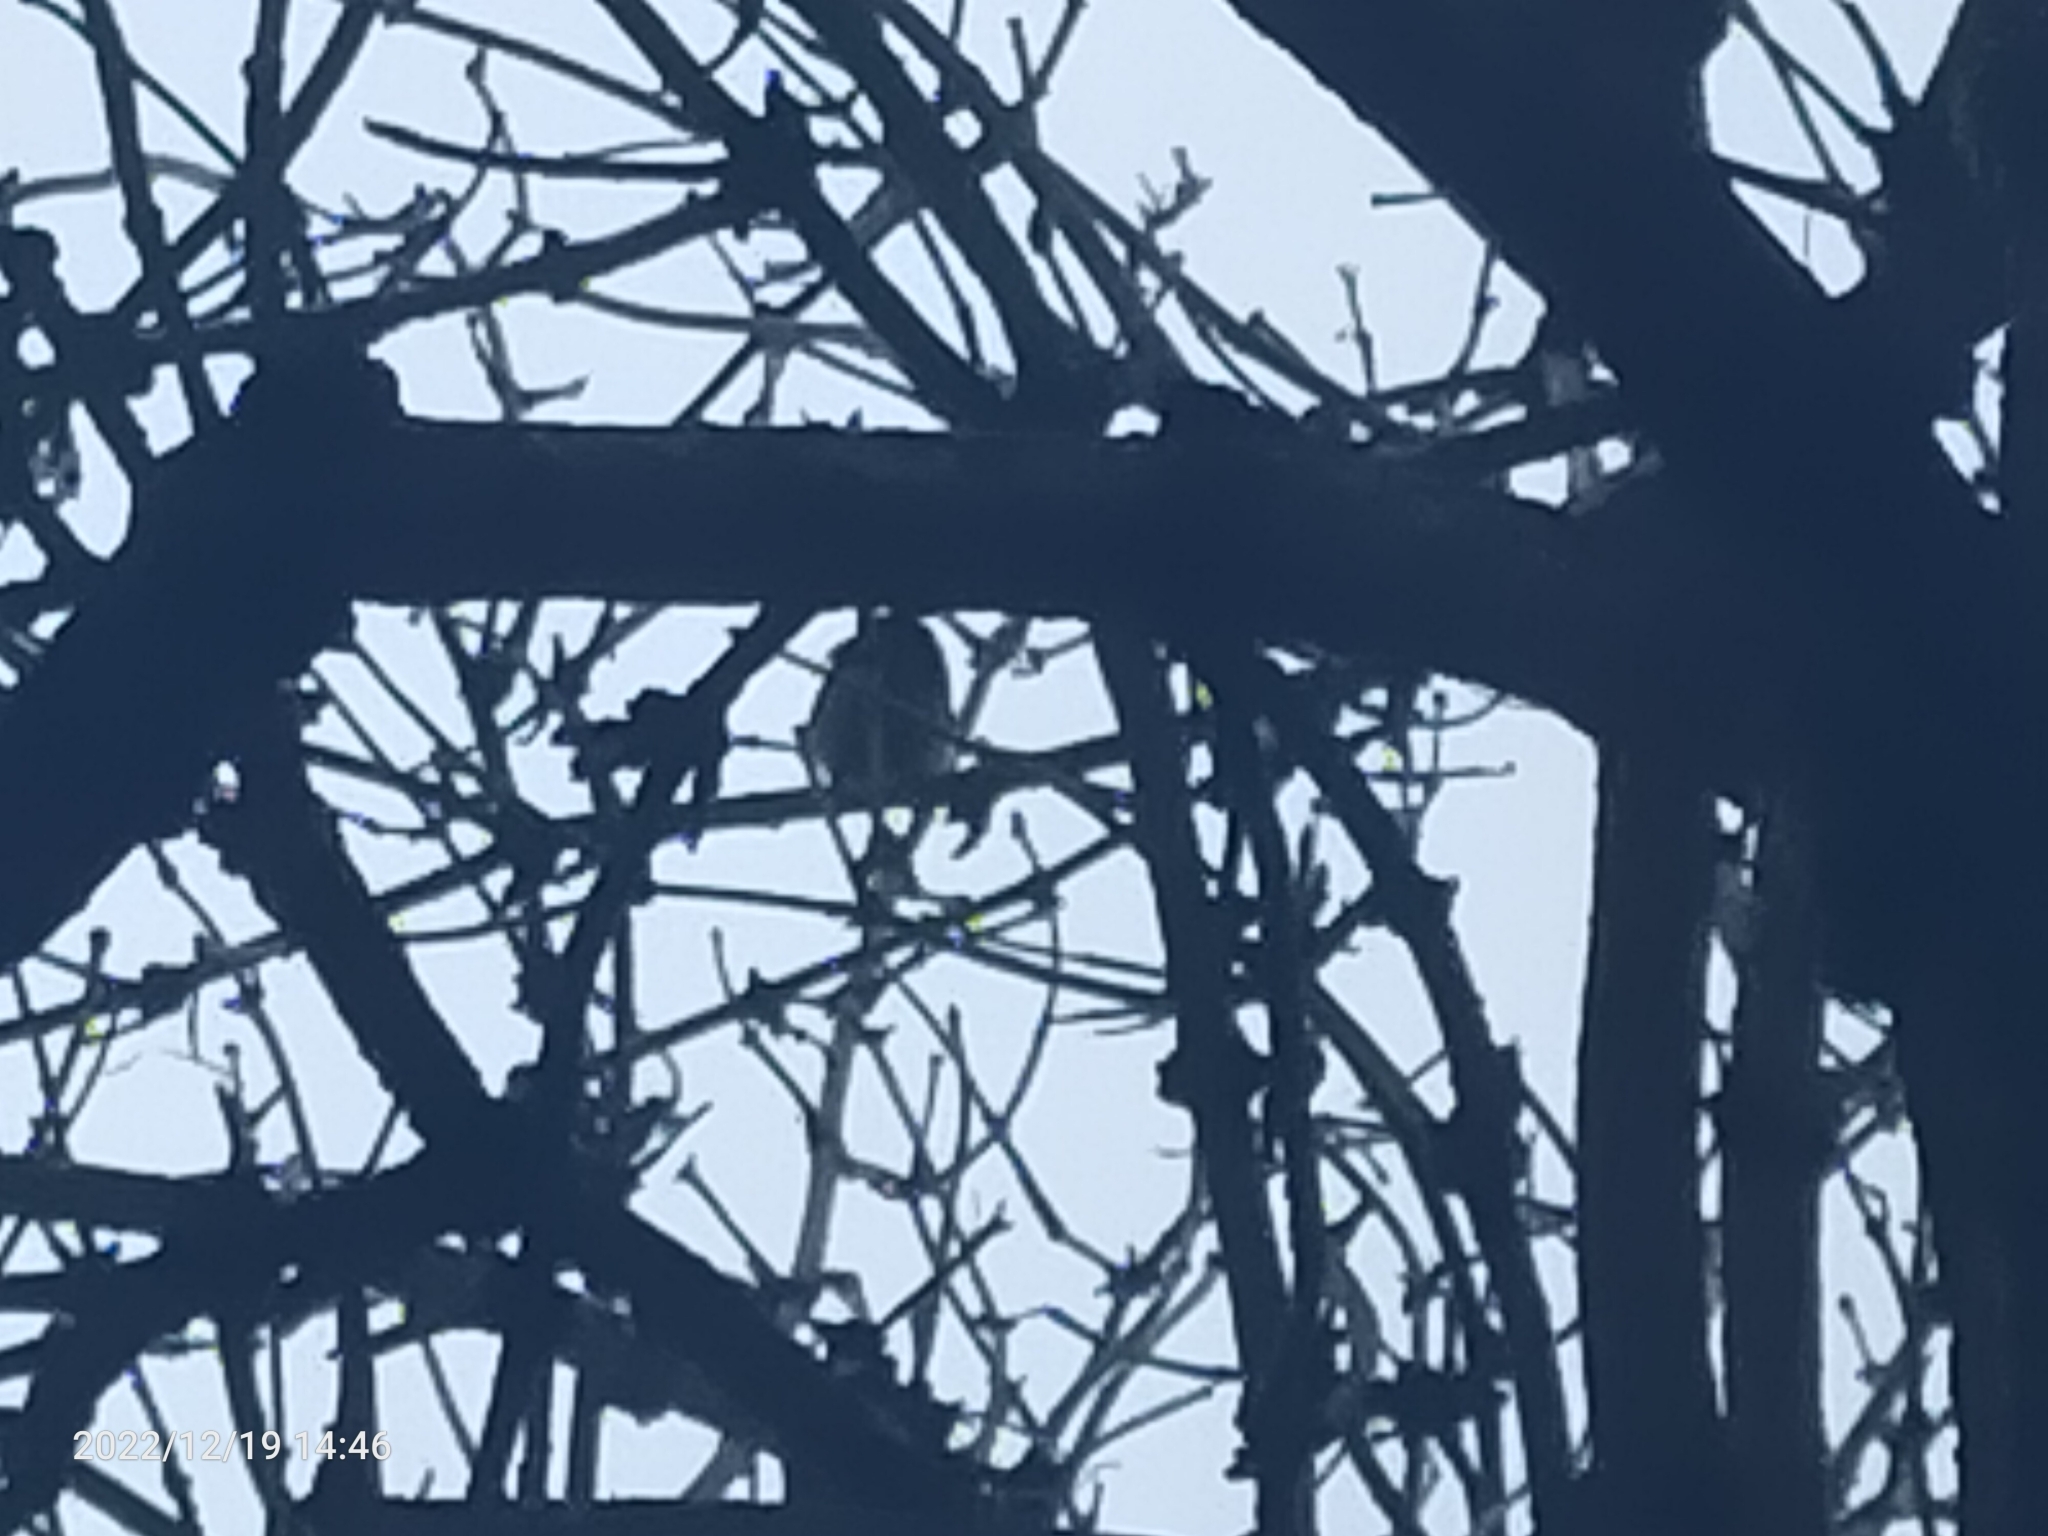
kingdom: Animalia
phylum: Chordata
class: Aves
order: Passeriformes
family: Paridae
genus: Cyanistes
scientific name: Cyanistes caeruleus
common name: Eurasian blue tit
